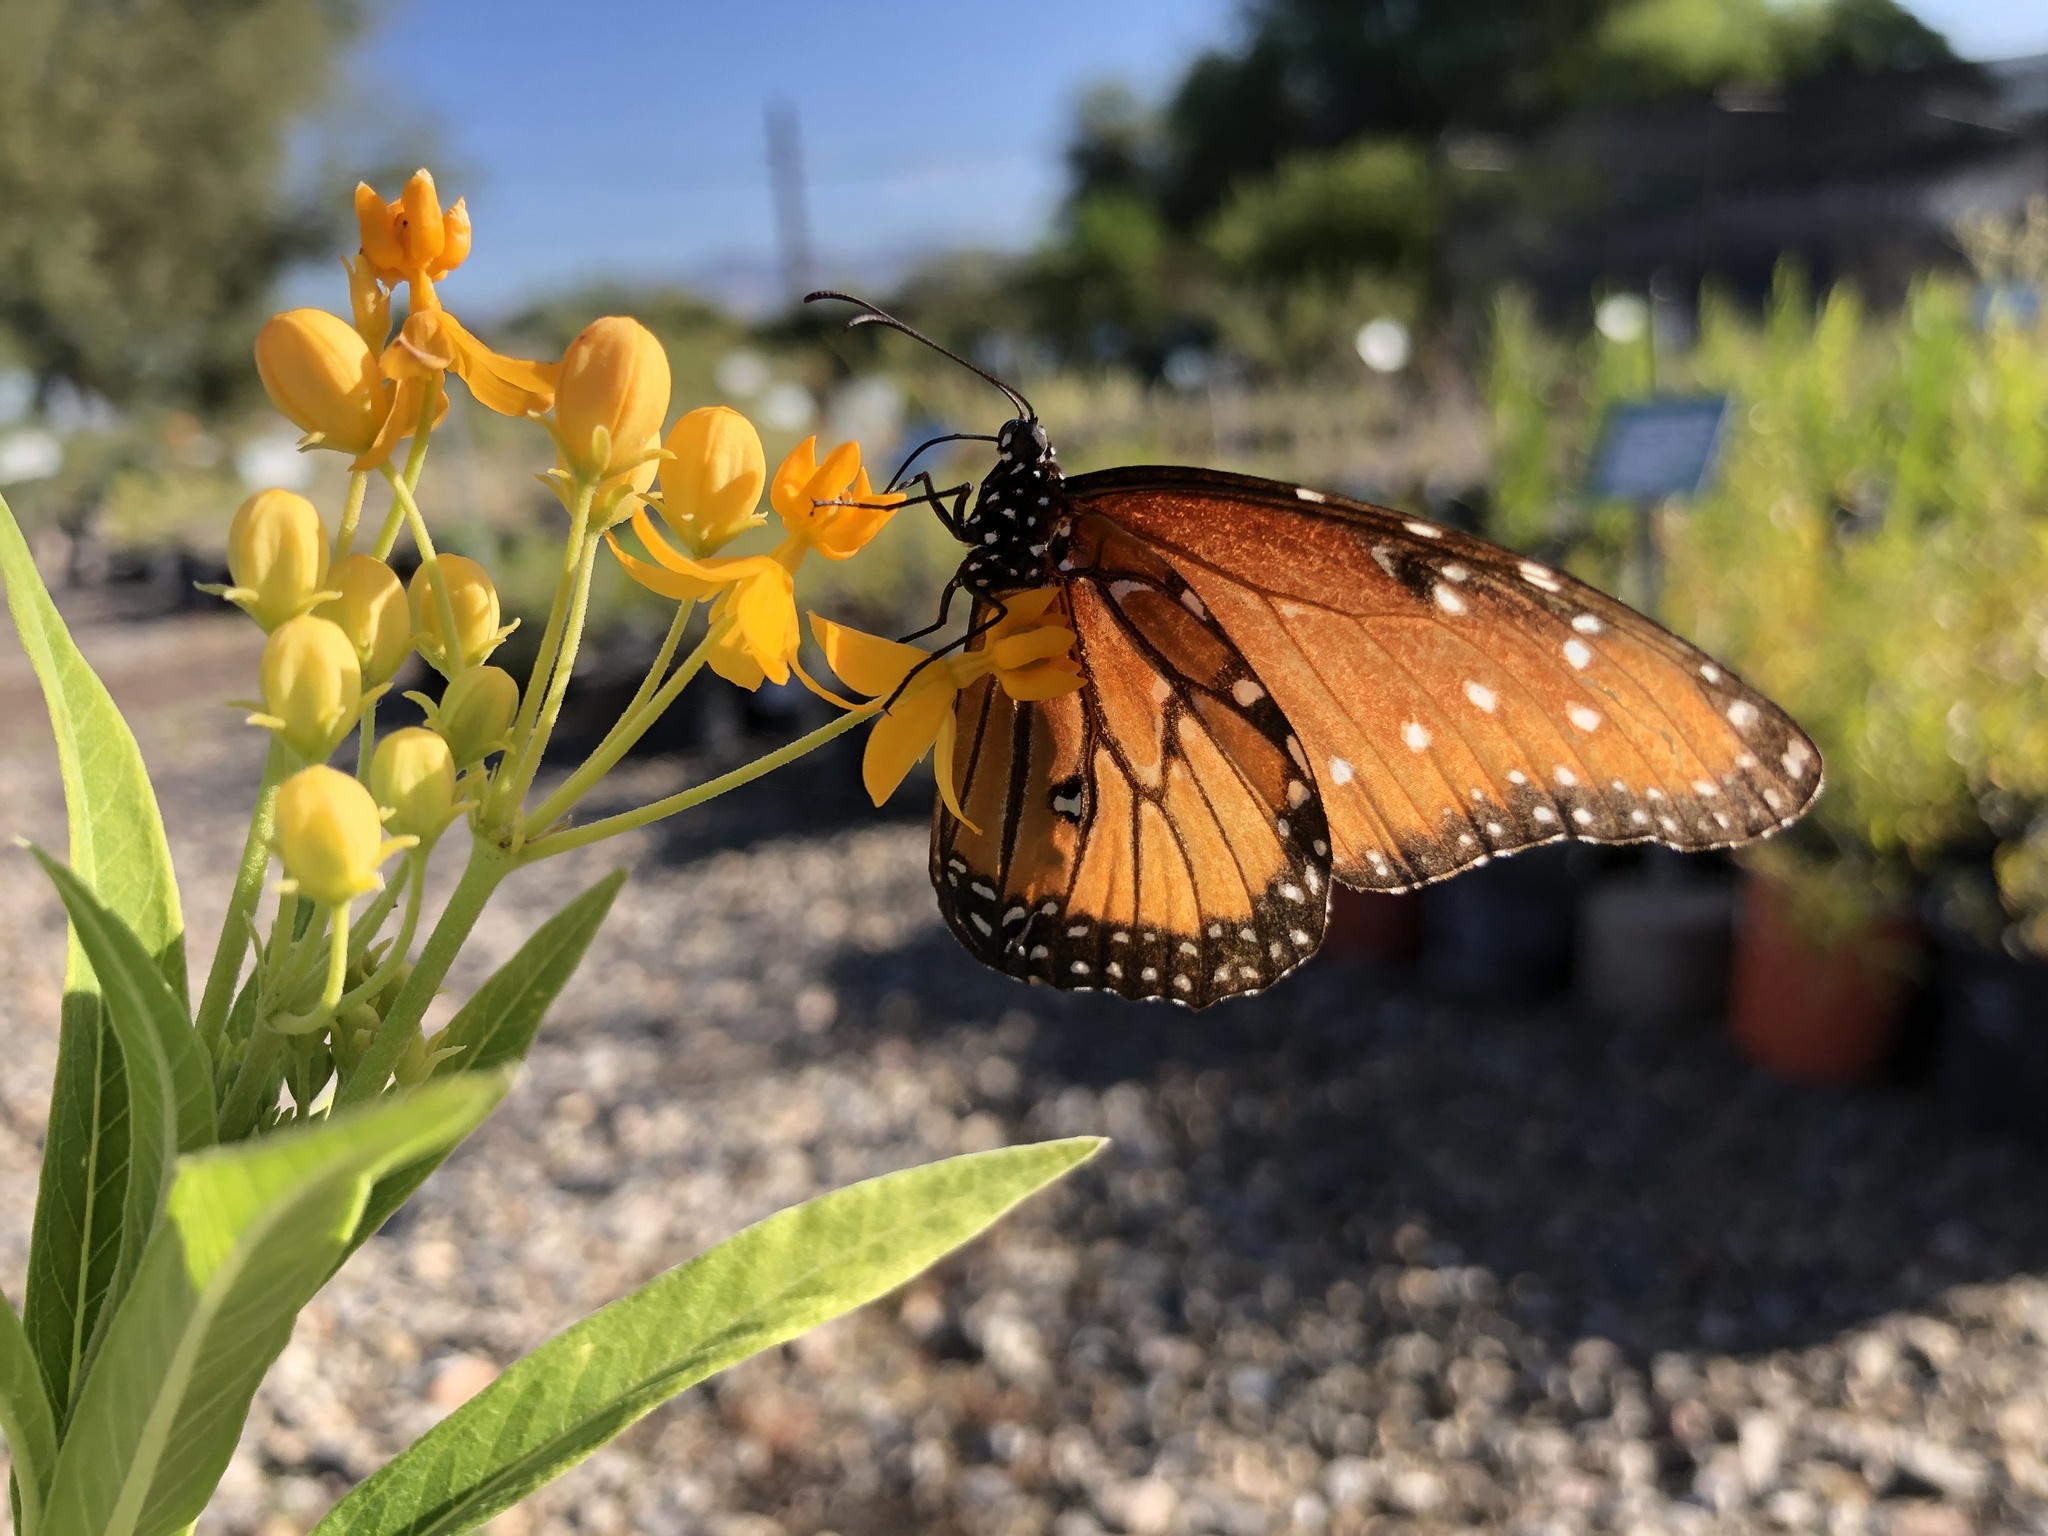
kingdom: Animalia
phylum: Arthropoda
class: Insecta
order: Lepidoptera
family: Nymphalidae
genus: Danaus
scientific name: Danaus gilippus
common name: Queen
